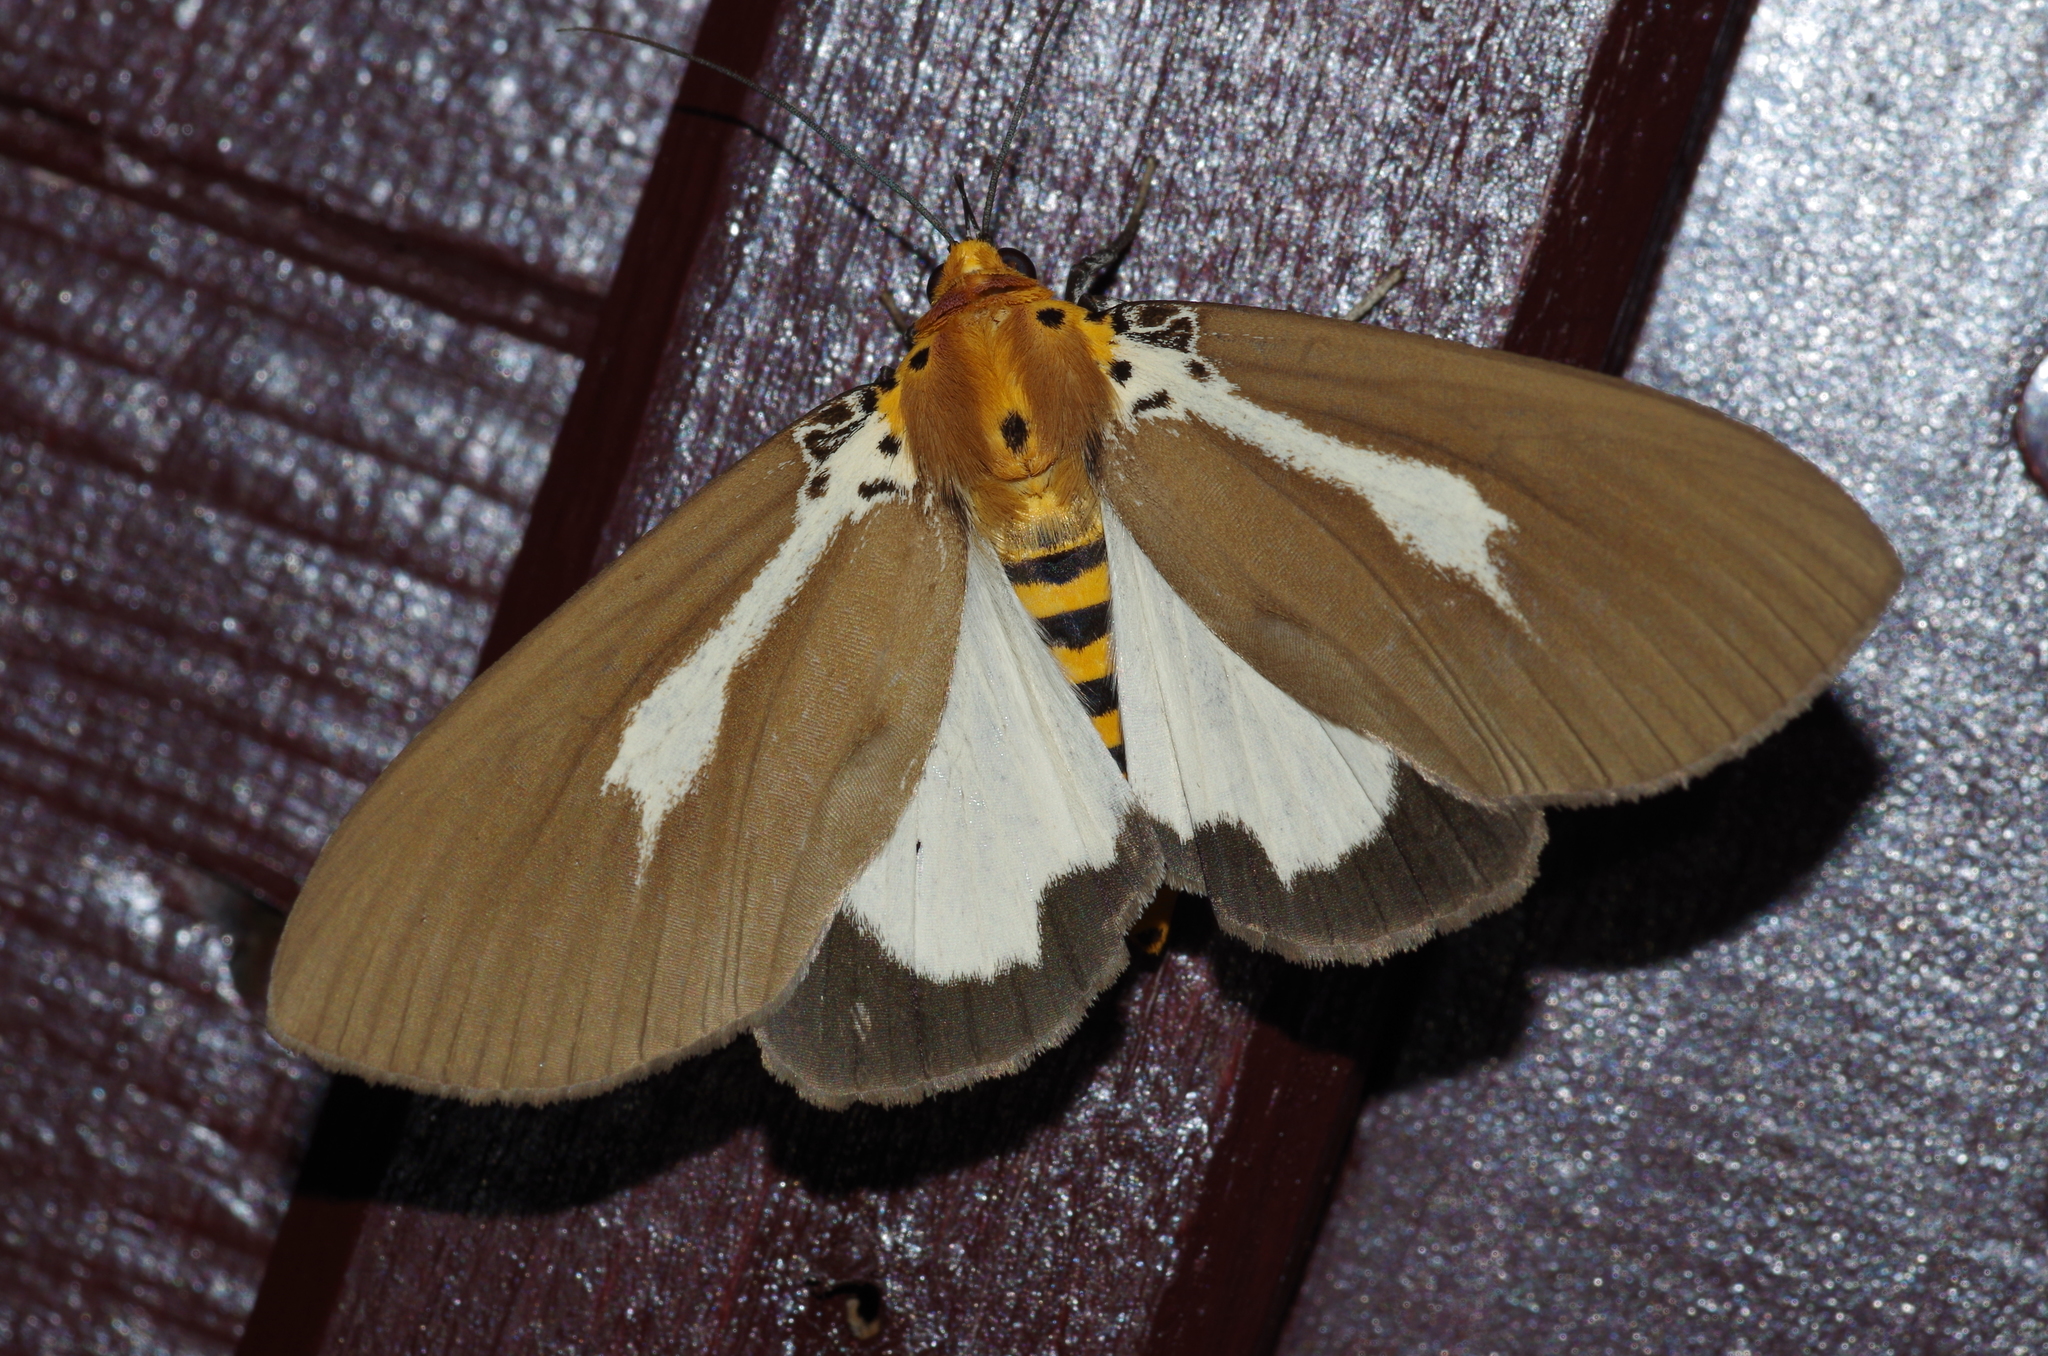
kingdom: Animalia
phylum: Arthropoda
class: Insecta
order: Lepidoptera
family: Erebidae
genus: Asota
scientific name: Asota heliconia
